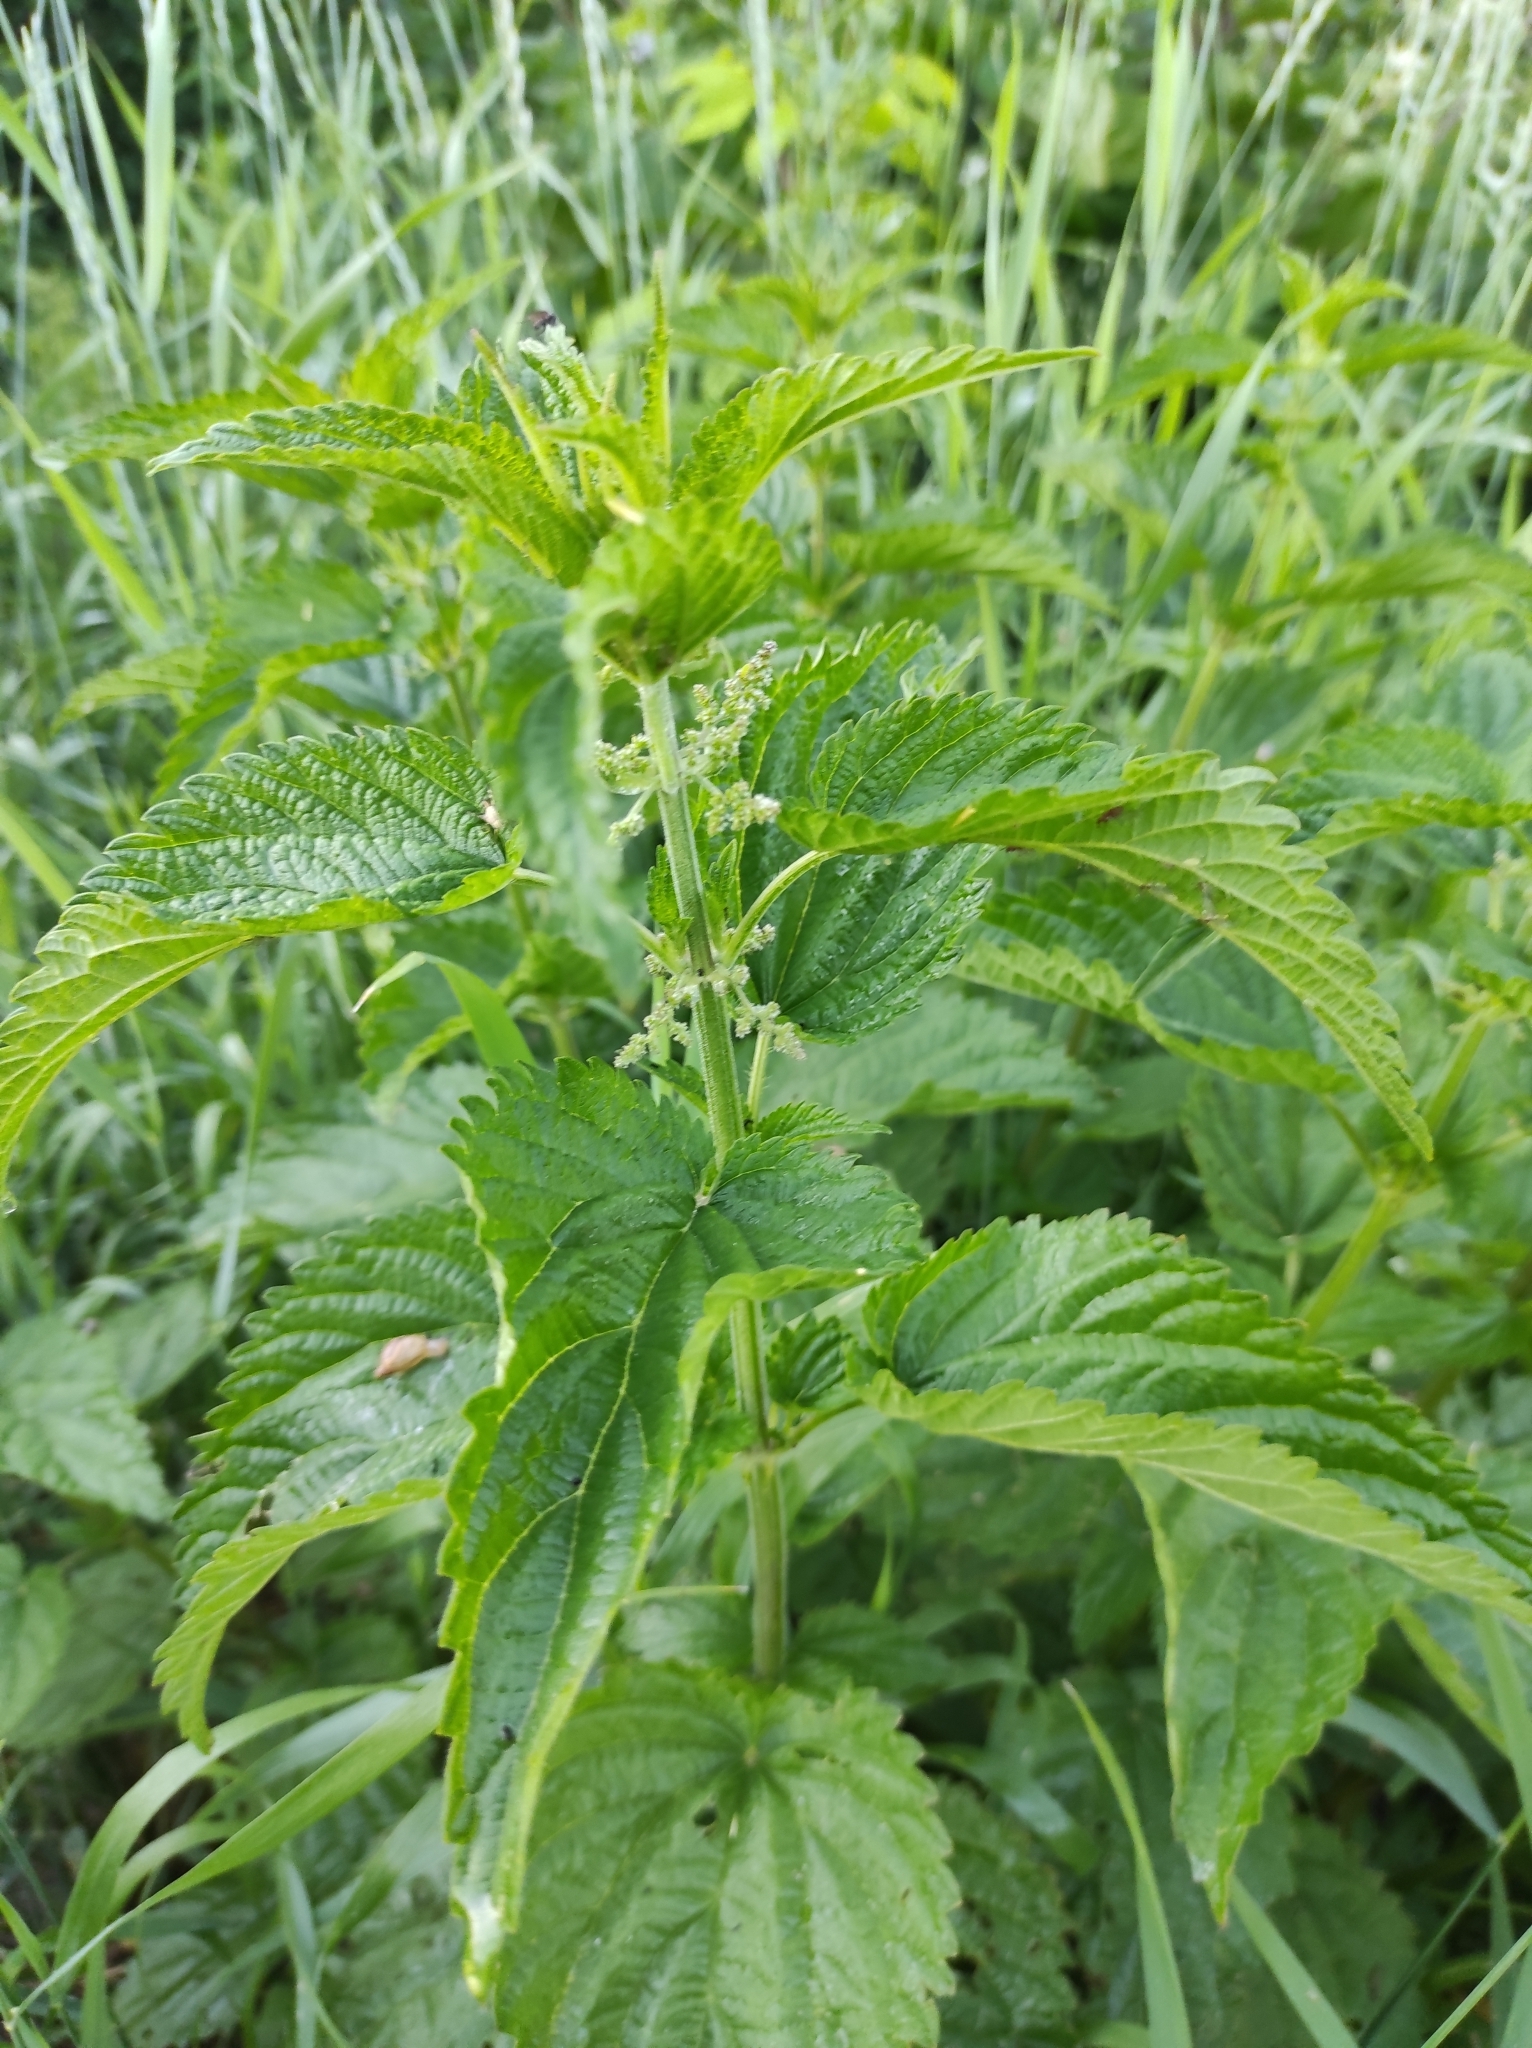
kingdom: Plantae
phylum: Tracheophyta
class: Magnoliopsida
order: Rosales
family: Urticaceae
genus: Urtica
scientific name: Urtica dioica
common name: Common nettle
